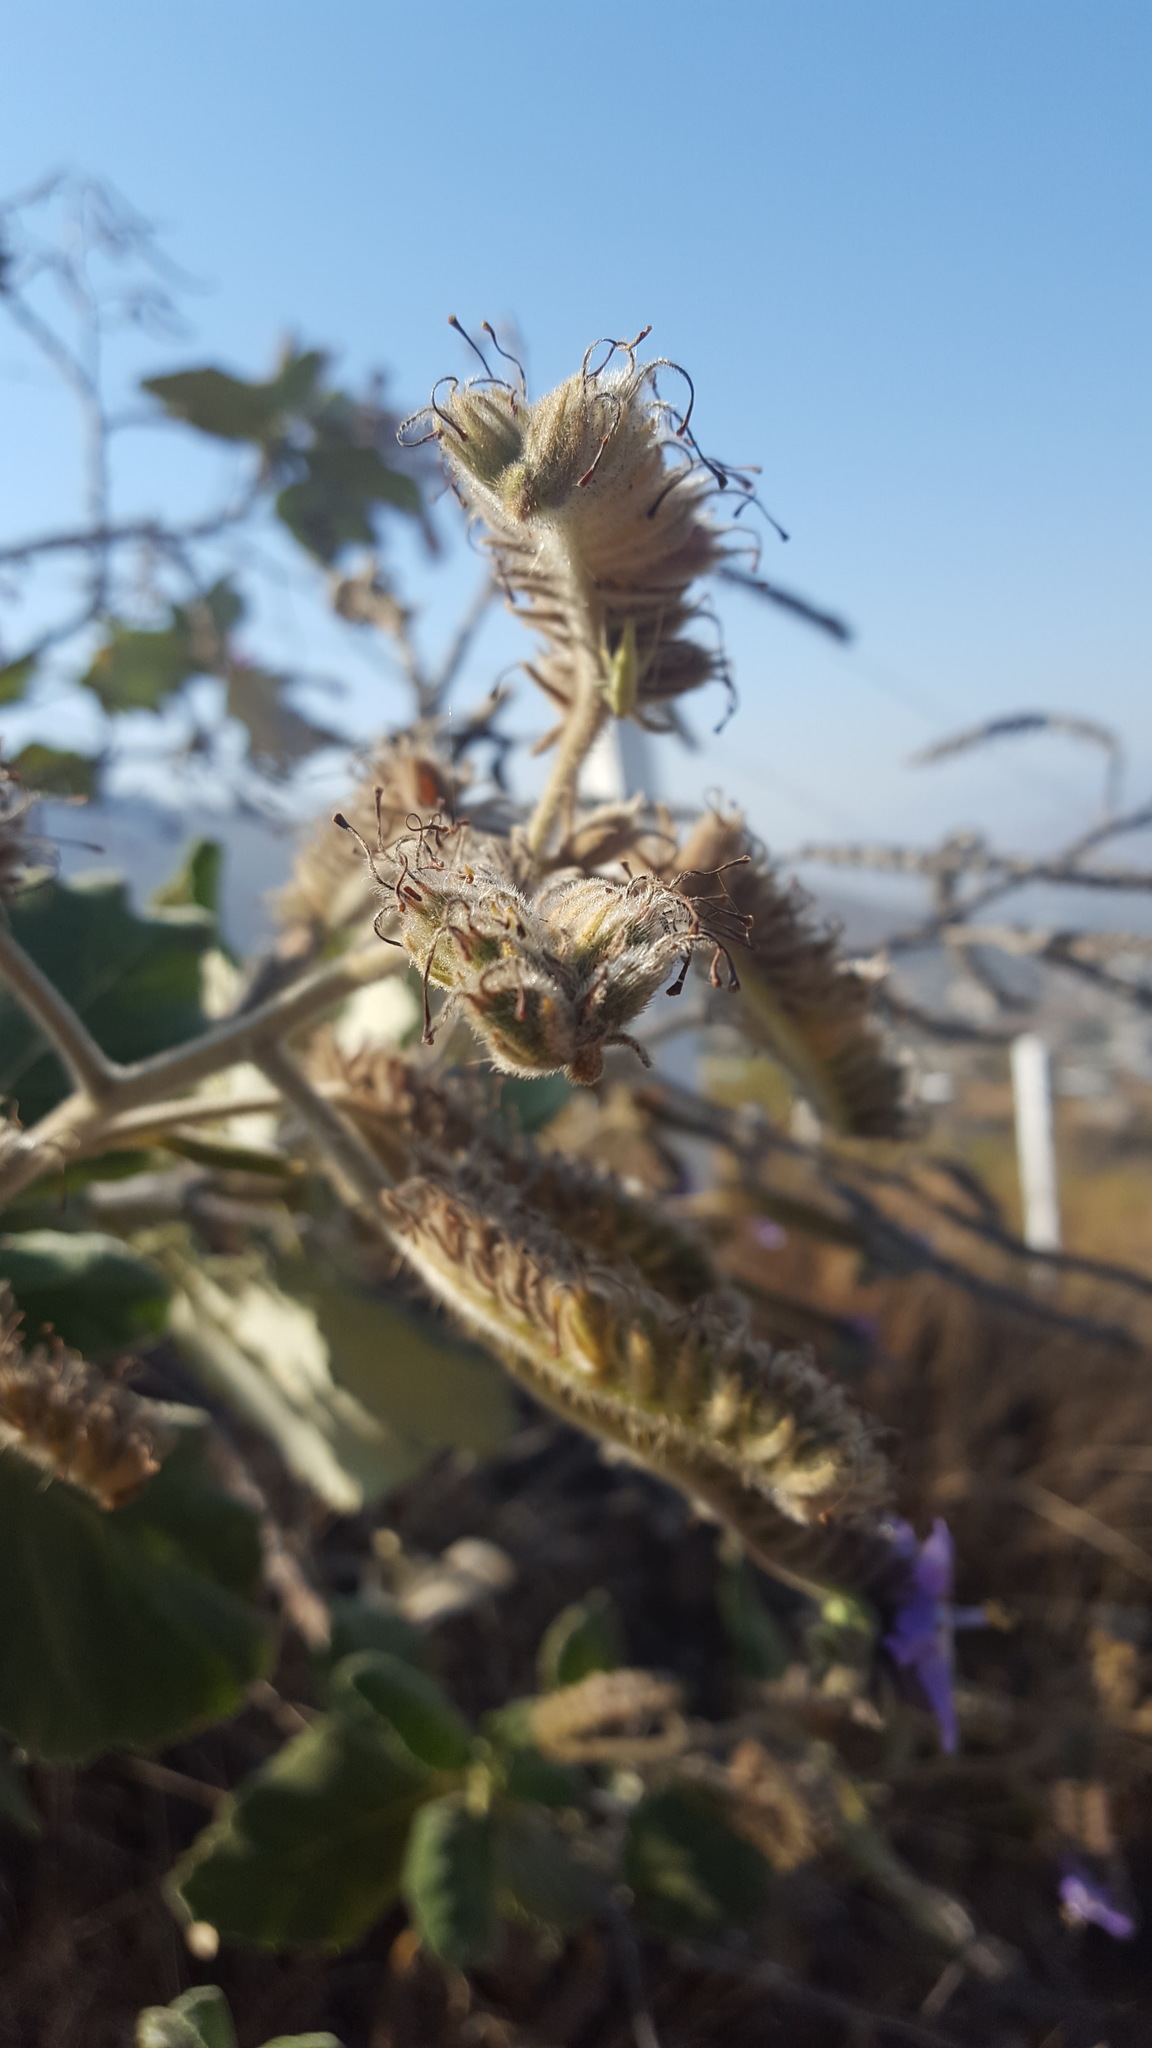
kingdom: Plantae
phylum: Tracheophyta
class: Magnoliopsida
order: Boraginales
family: Namaceae
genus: Wigandia
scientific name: Wigandia urens
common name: Caracus wigandia
